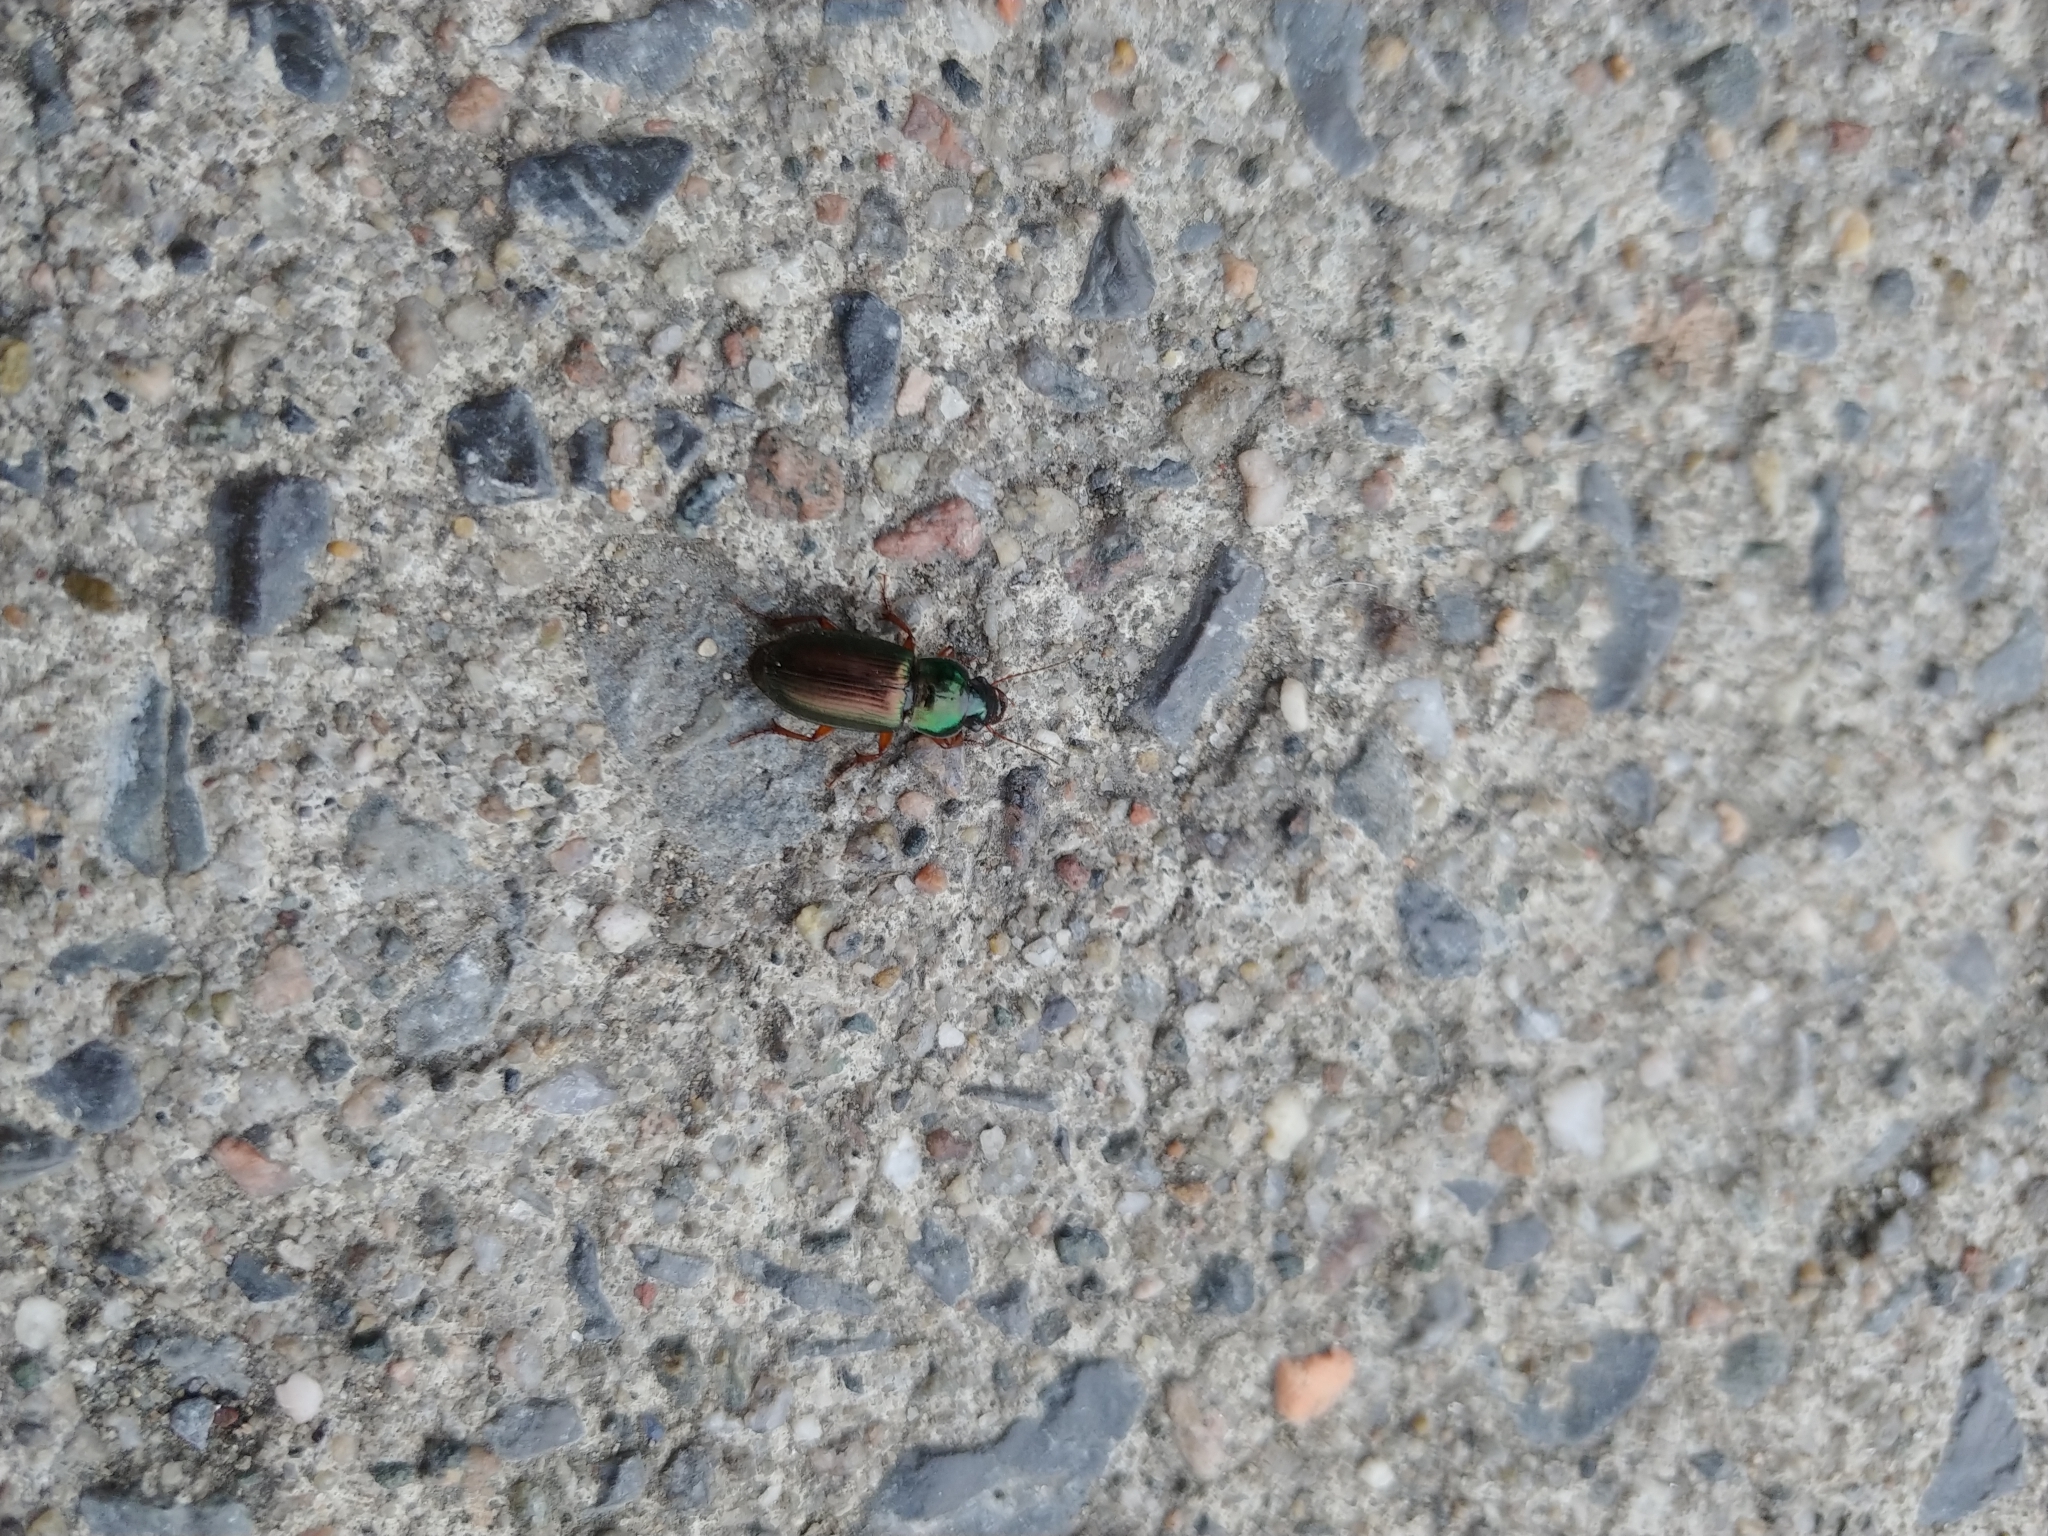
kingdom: Animalia
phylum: Arthropoda
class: Insecta
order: Coleoptera
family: Carabidae
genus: Harpalus
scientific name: Harpalus affinis
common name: Polychrome harp ground beetle
